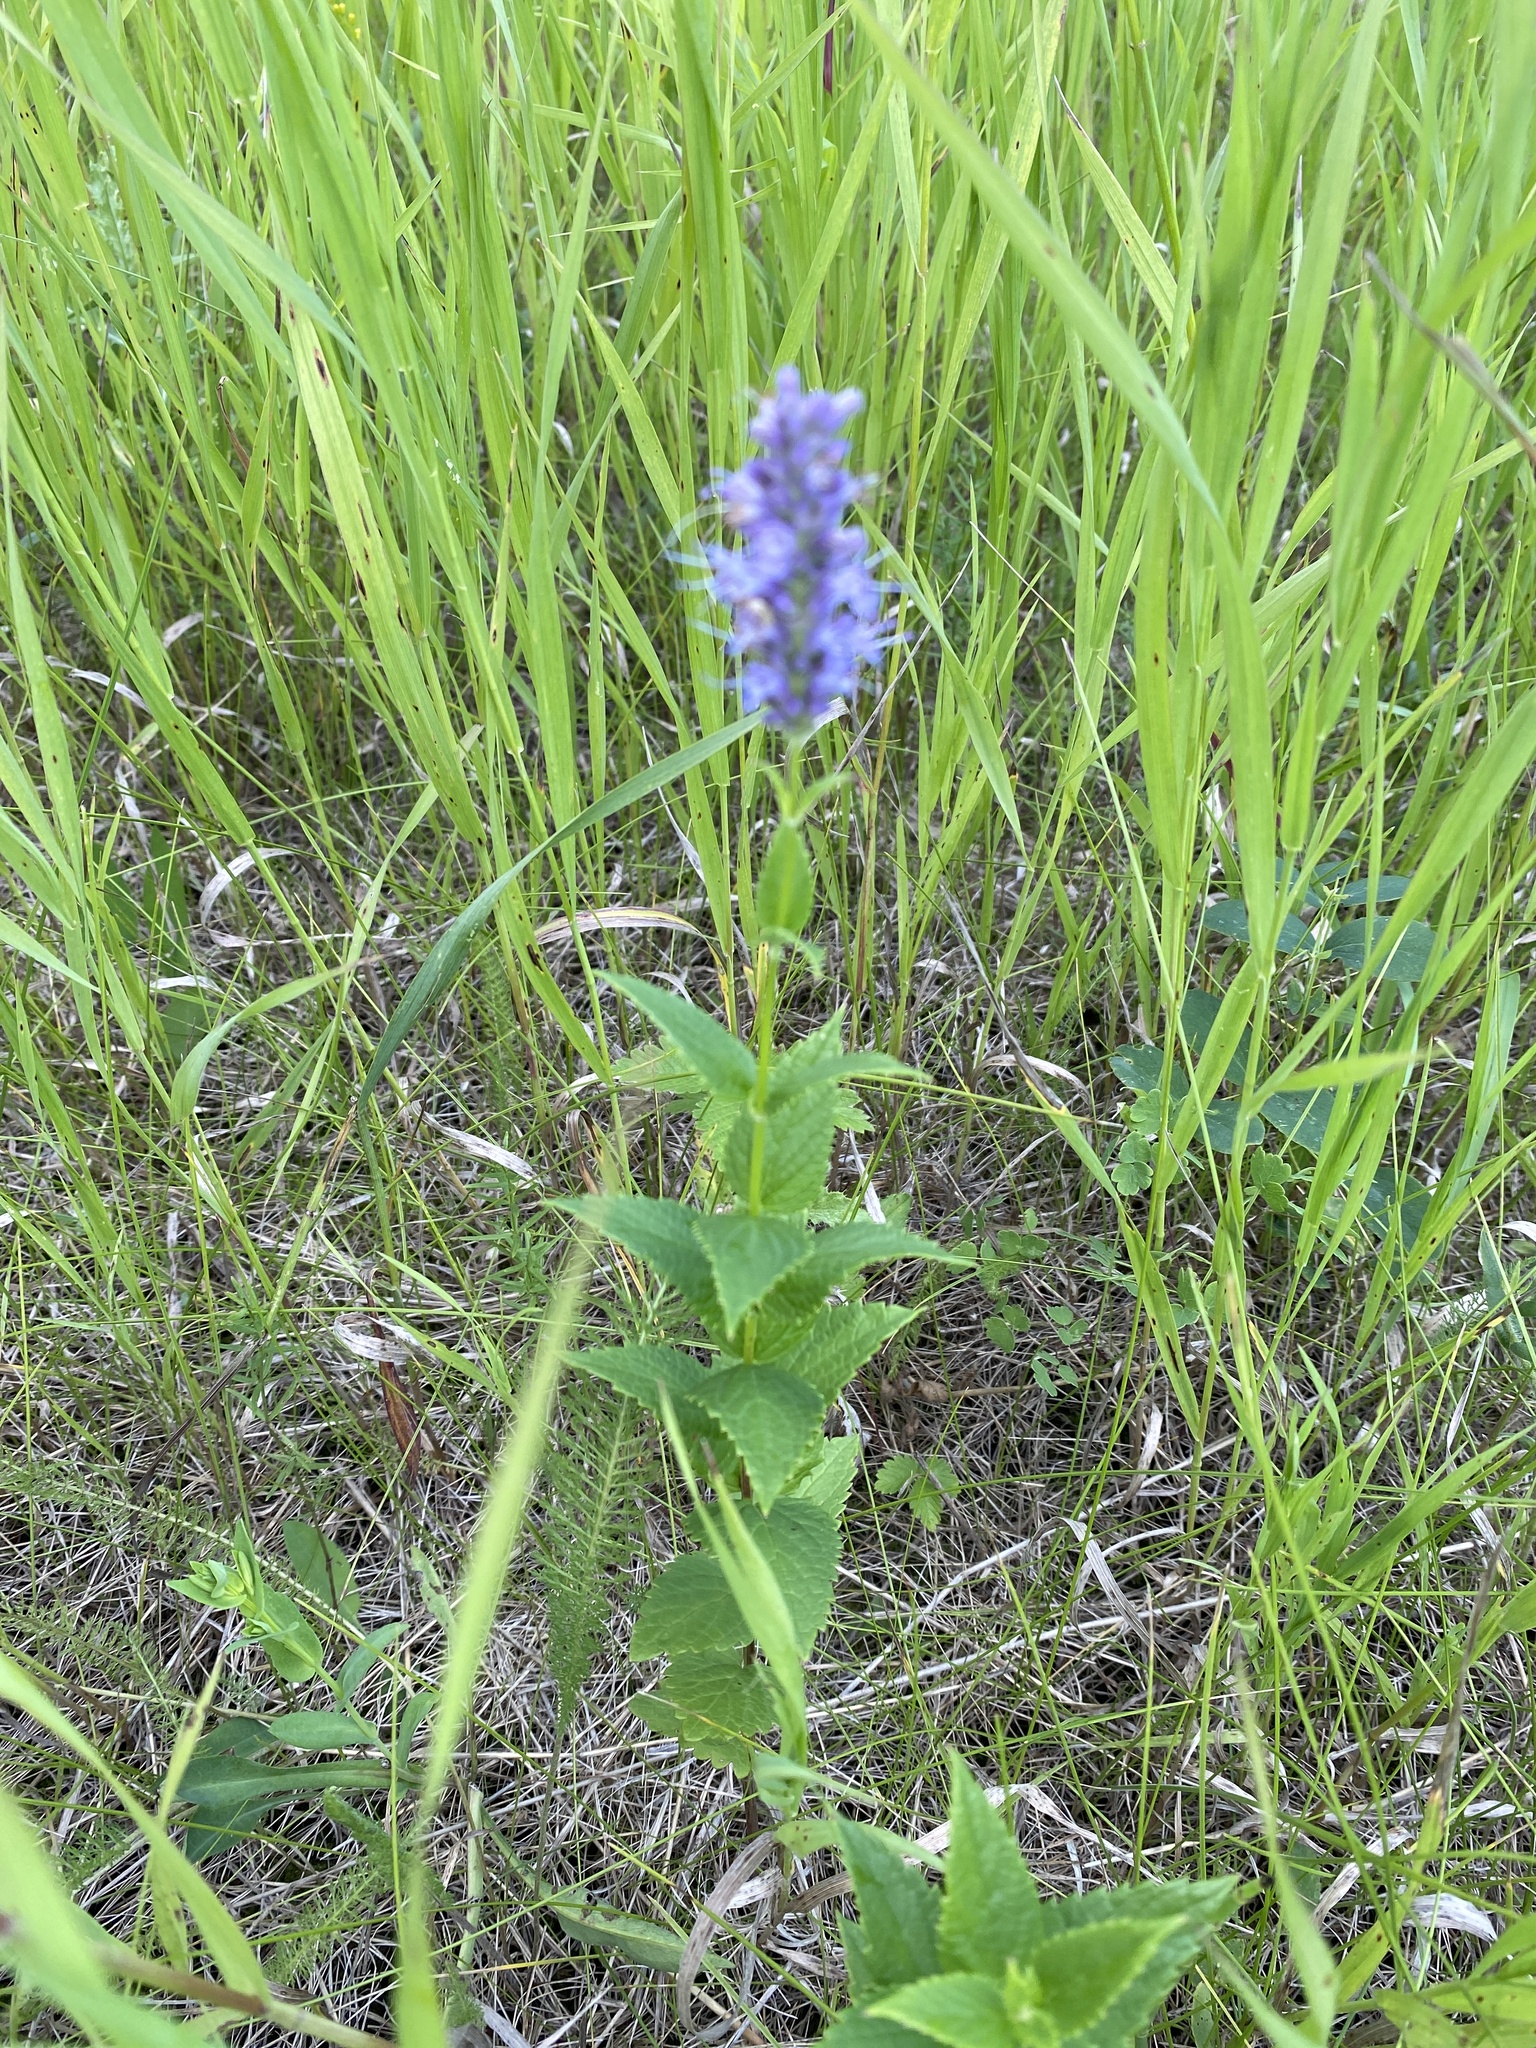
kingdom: Plantae
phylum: Tracheophyta
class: Magnoliopsida
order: Lamiales
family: Lamiaceae
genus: Agastache
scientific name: Agastache foeniculum
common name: Anise hyssop
